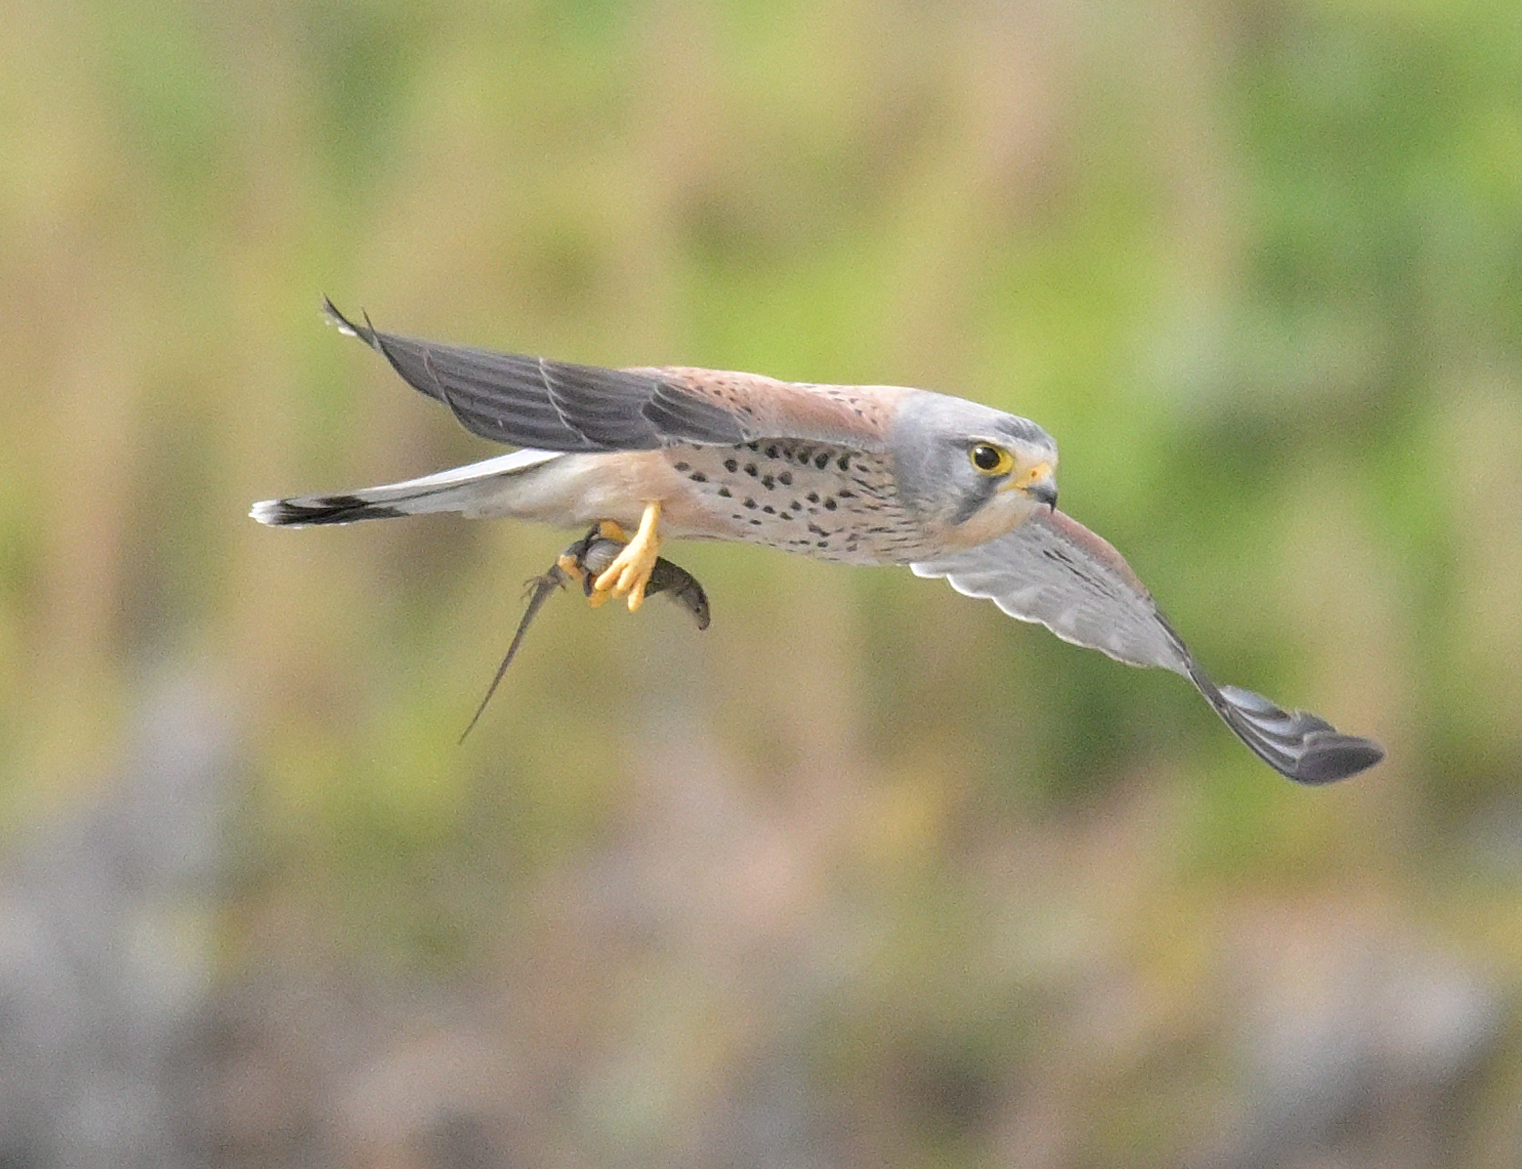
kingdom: Animalia
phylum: Chordata
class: Aves
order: Falconiformes
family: Falconidae
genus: Falco
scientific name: Falco tinnunculus
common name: Common kestrel
